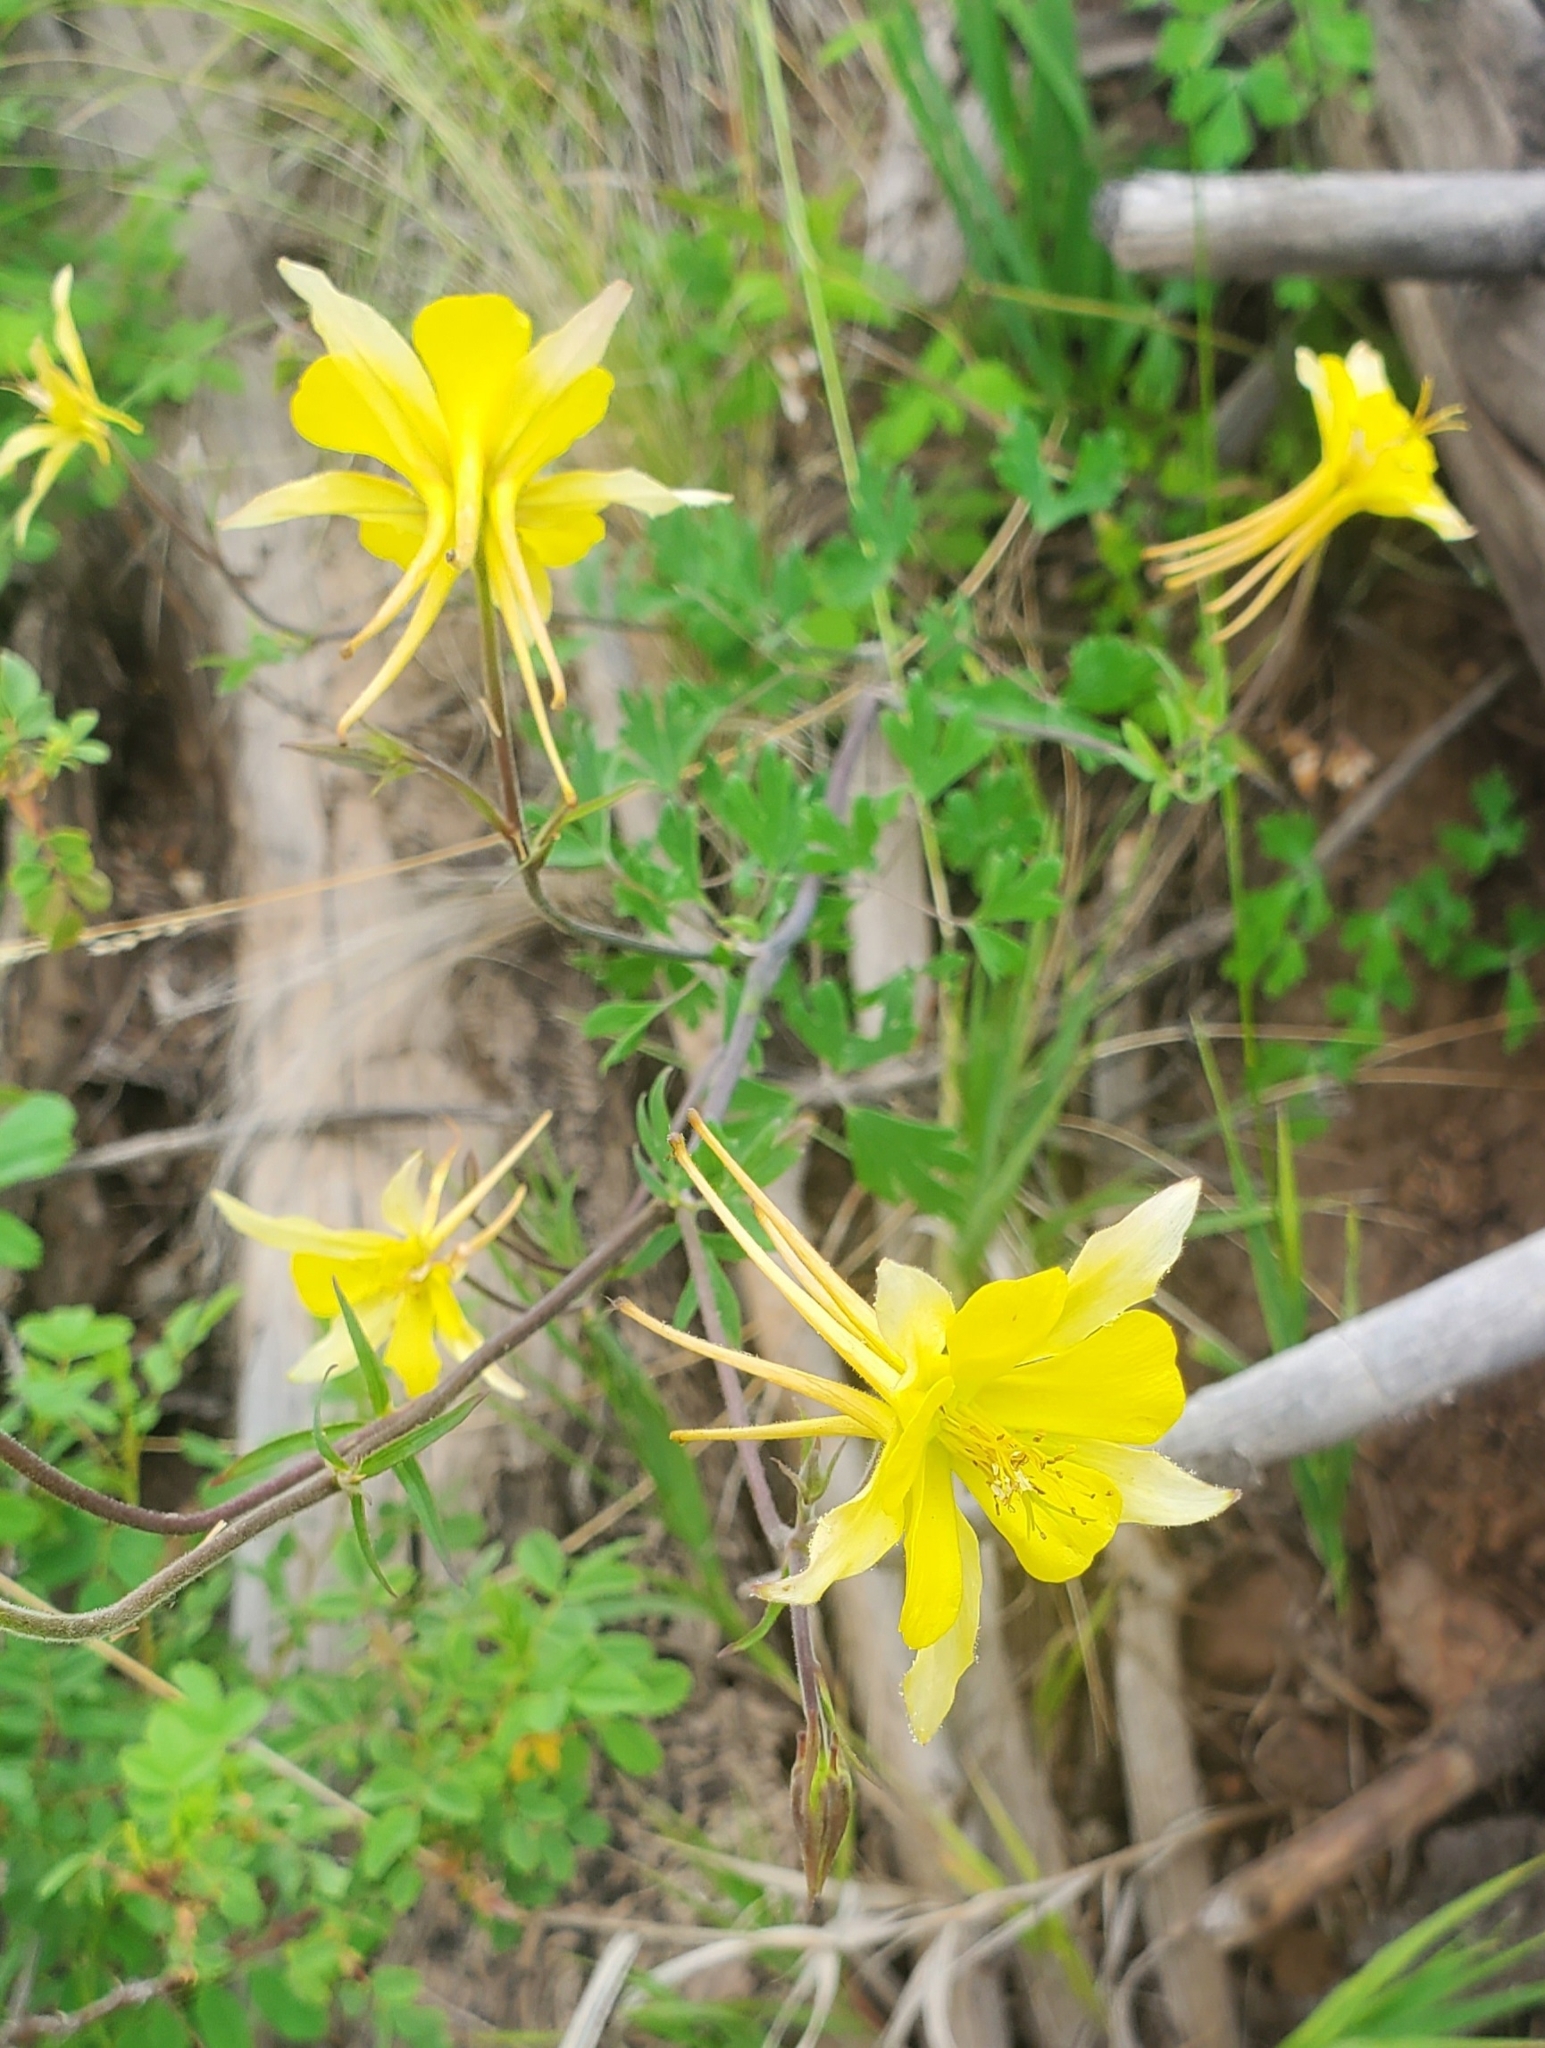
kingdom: Plantae
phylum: Tracheophyta
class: Magnoliopsida
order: Ranunculales
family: Ranunculaceae
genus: Aquilegia
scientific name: Aquilegia chrysantha
